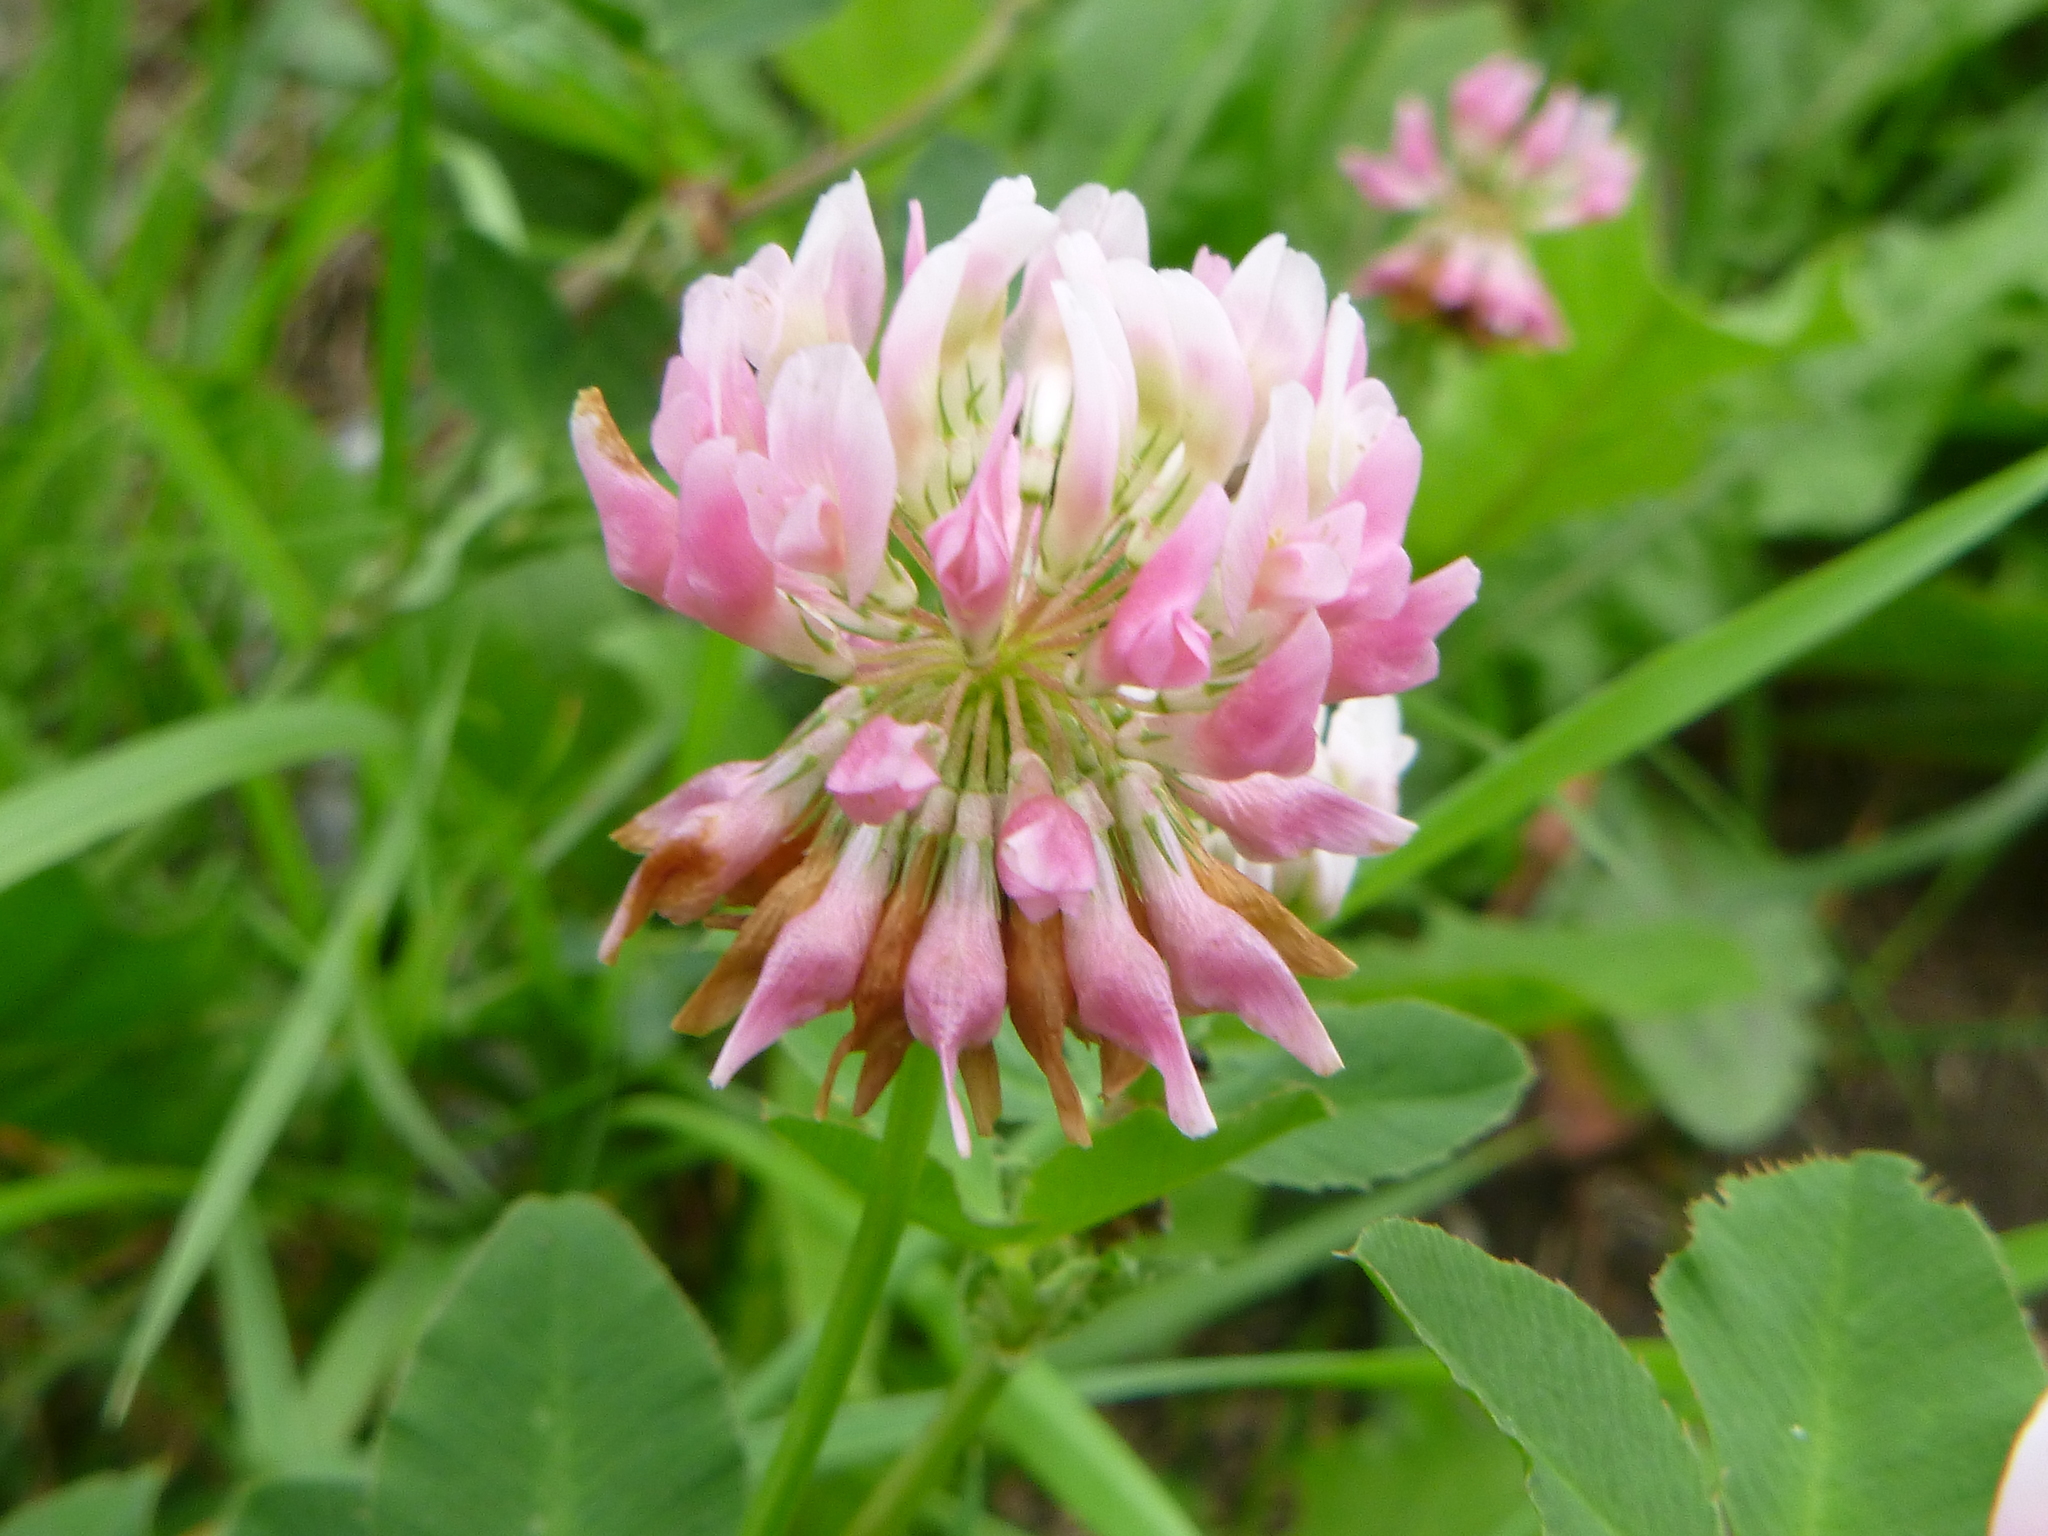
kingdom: Plantae
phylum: Tracheophyta
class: Magnoliopsida
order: Fabales
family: Fabaceae
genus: Trifolium
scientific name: Trifolium hybridum
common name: Alsike clover
